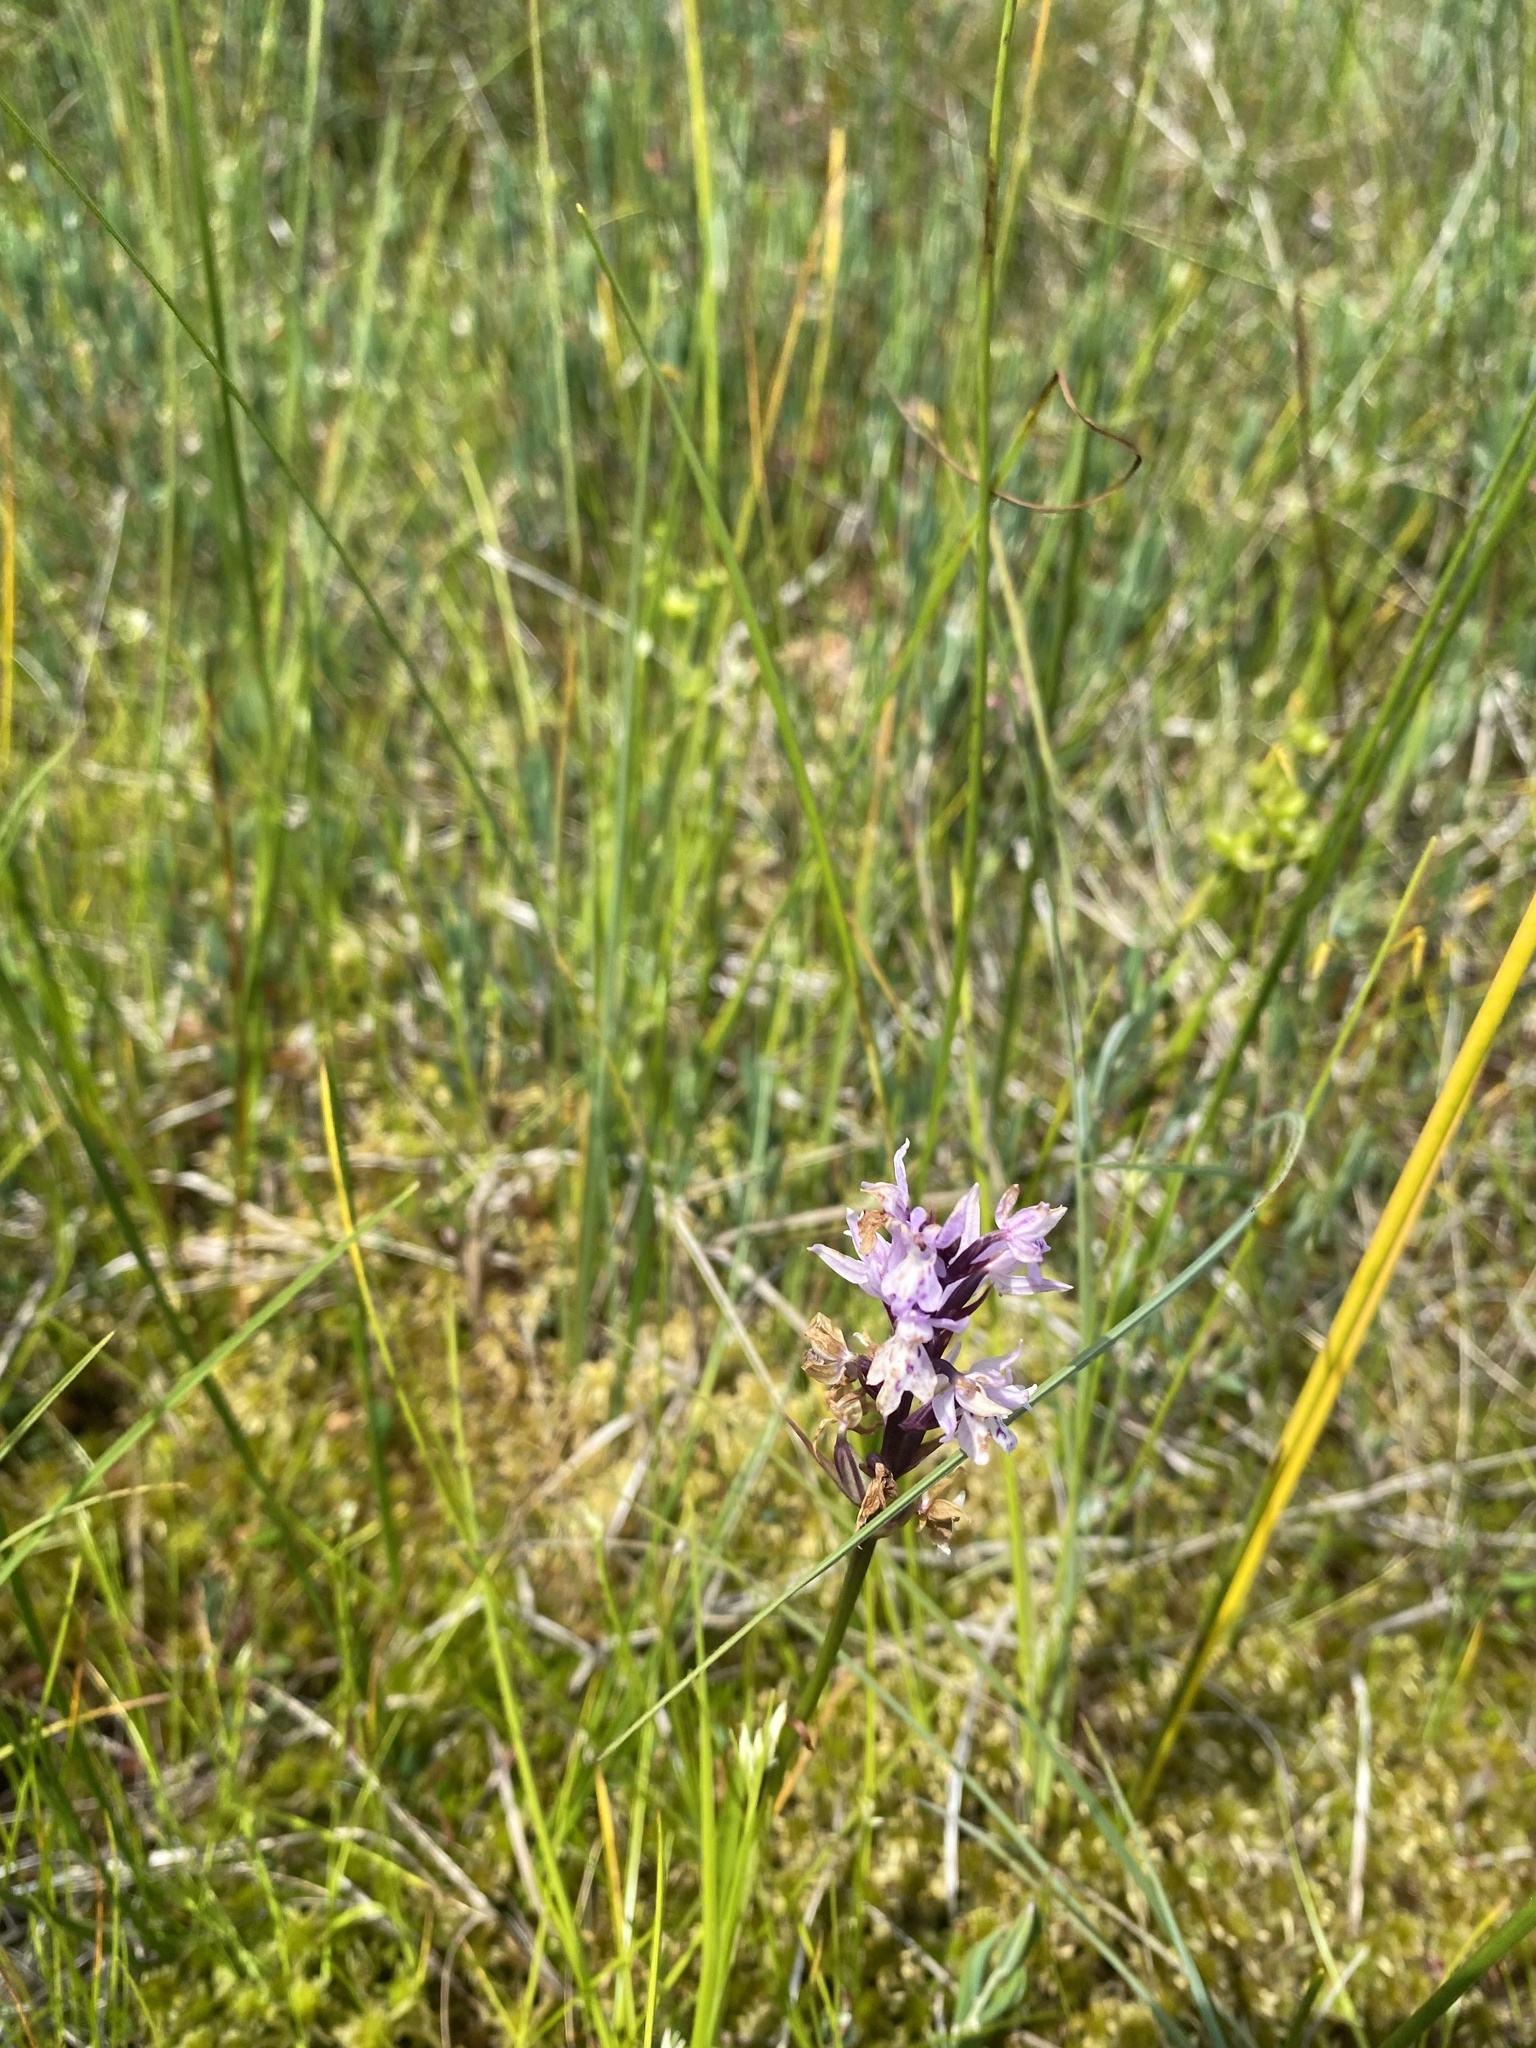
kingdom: Plantae
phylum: Tracheophyta
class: Liliopsida
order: Asparagales
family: Orchidaceae
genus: Dactylorhiza
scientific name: Dactylorhiza maculata
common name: Heath spotted-orchid
